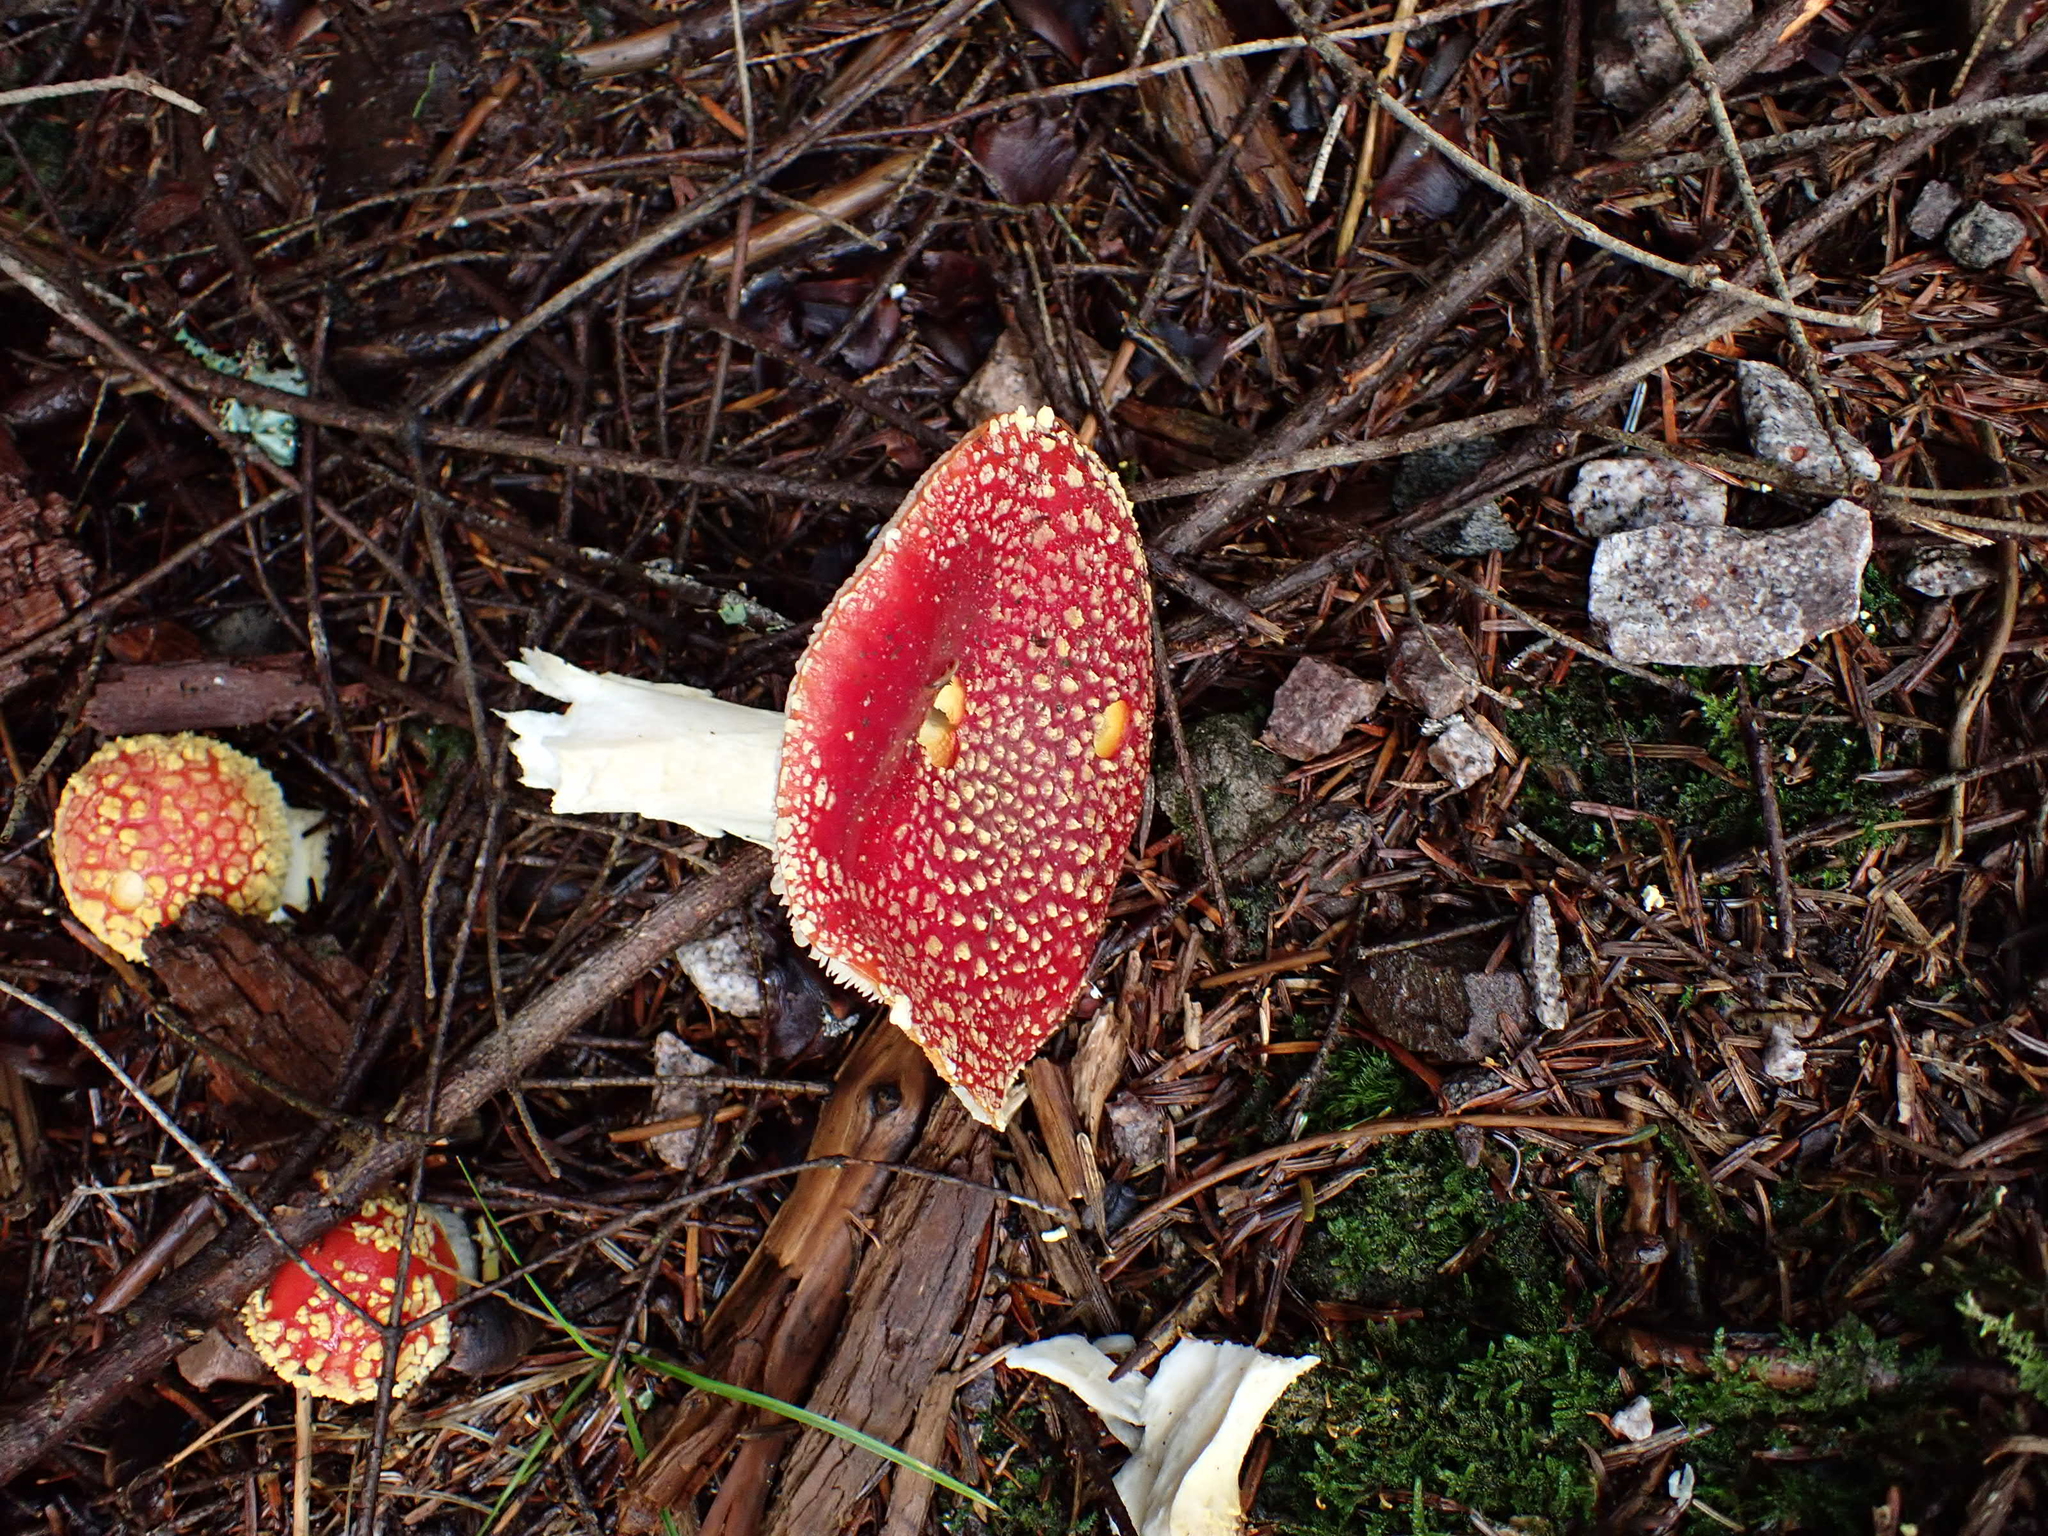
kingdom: Fungi
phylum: Basidiomycota
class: Agaricomycetes
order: Agaricales
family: Amanitaceae
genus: Amanita
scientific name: Amanita muscaria
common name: Fly agaric
